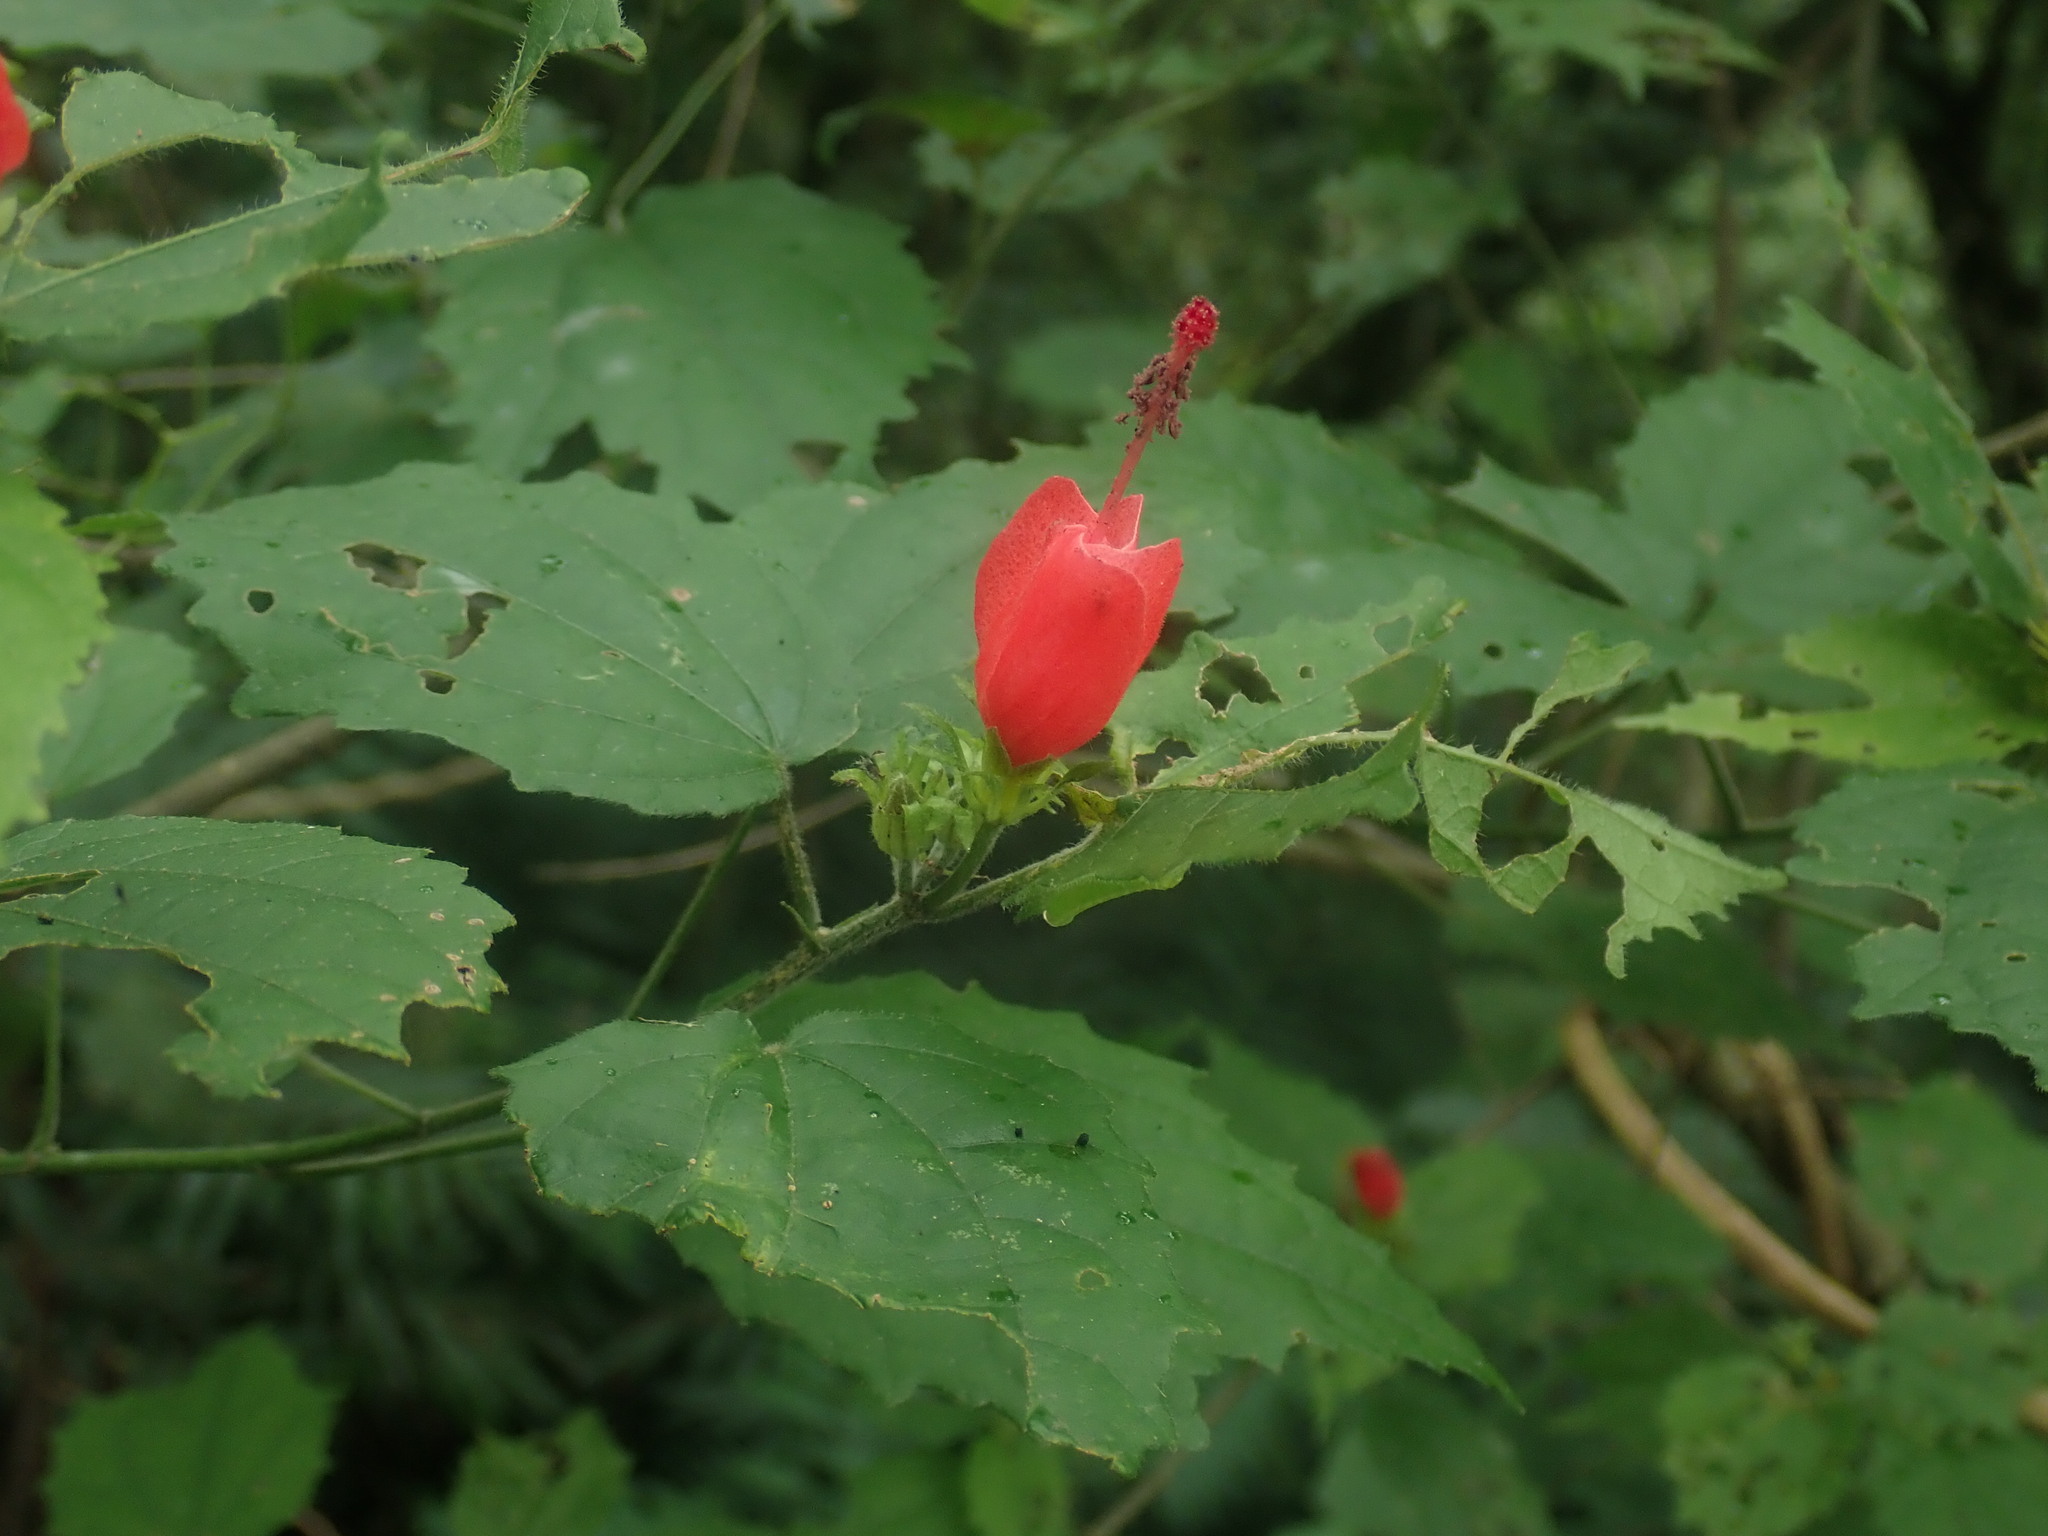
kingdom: Plantae
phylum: Tracheophyta
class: Magnoliopsida
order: Malvales
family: Malvaceae
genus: Malvaviscus
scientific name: Malvaviscus arboreus
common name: Wax mallow
